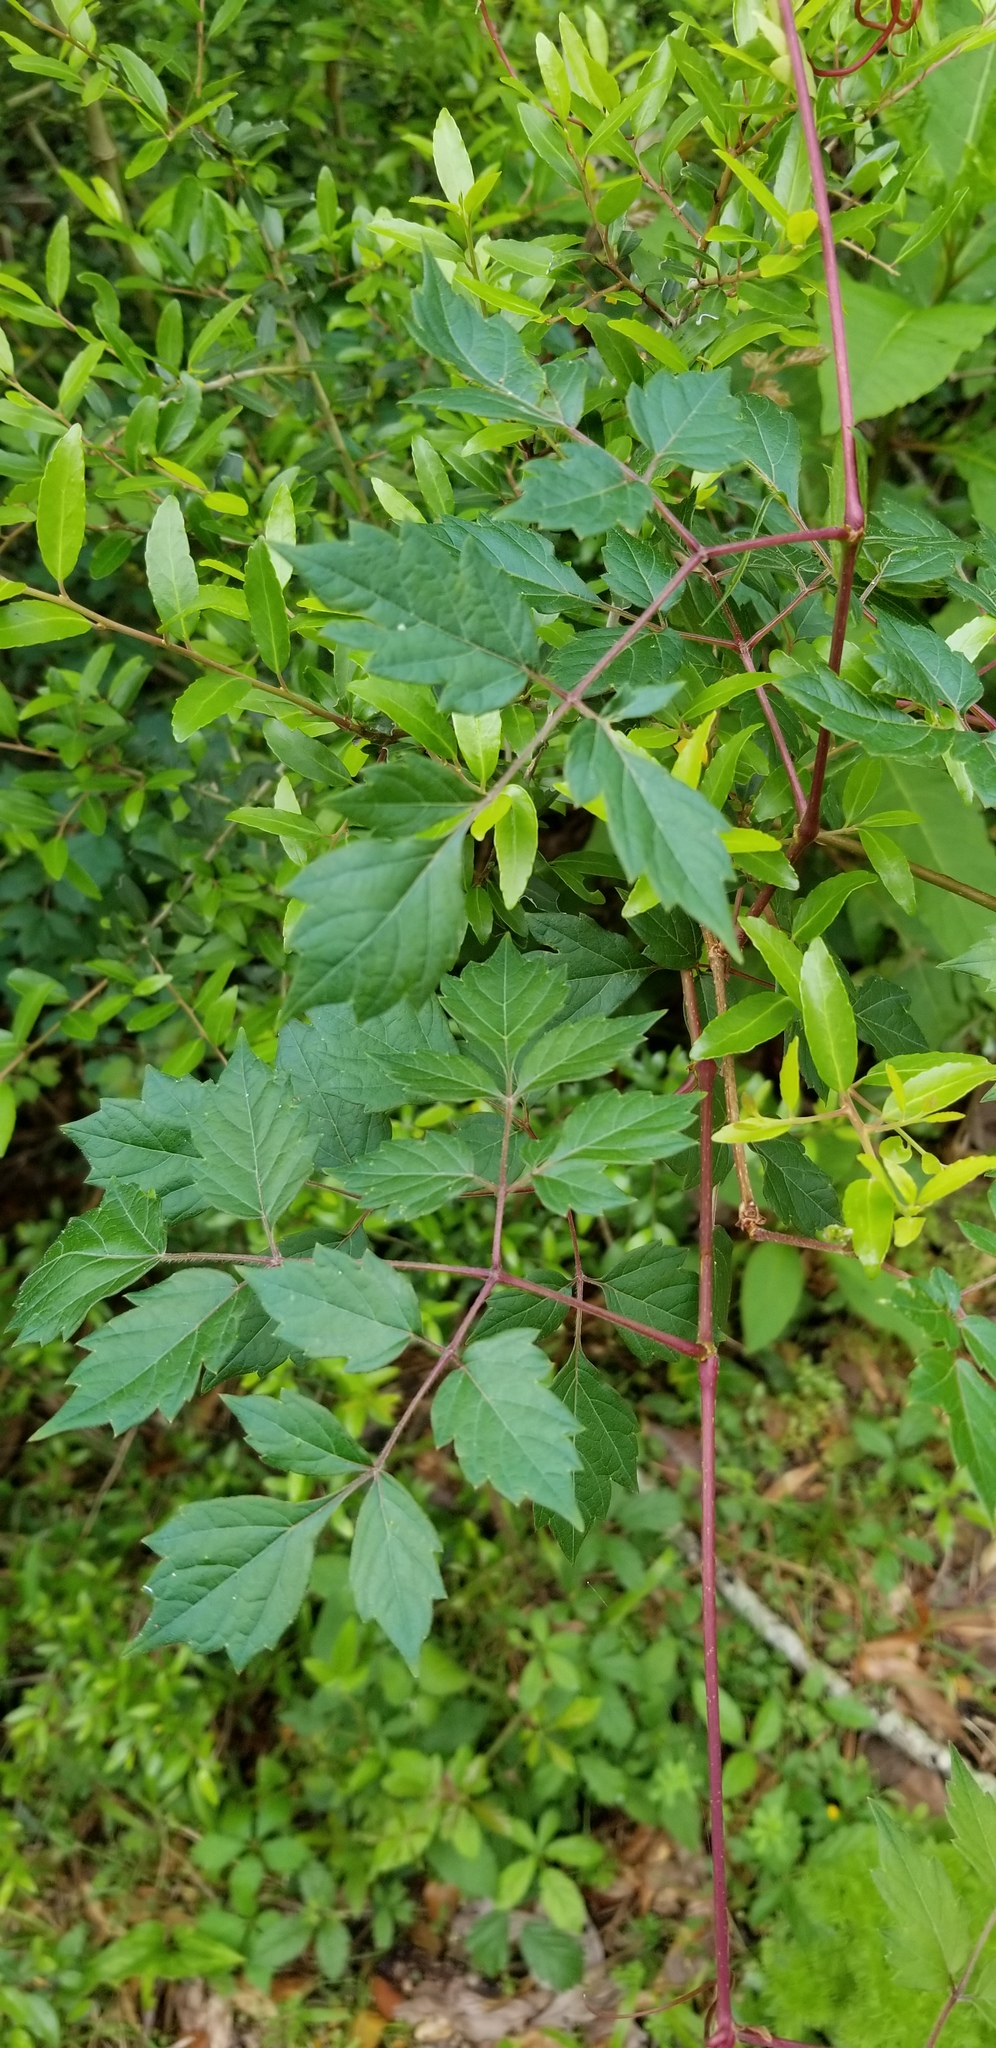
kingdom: Plantae
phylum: Tracheophyta
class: Magnoliopsida
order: Vitales
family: Vitaceae
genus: Nekemias
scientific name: Nekemias arborea
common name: Peppervine
